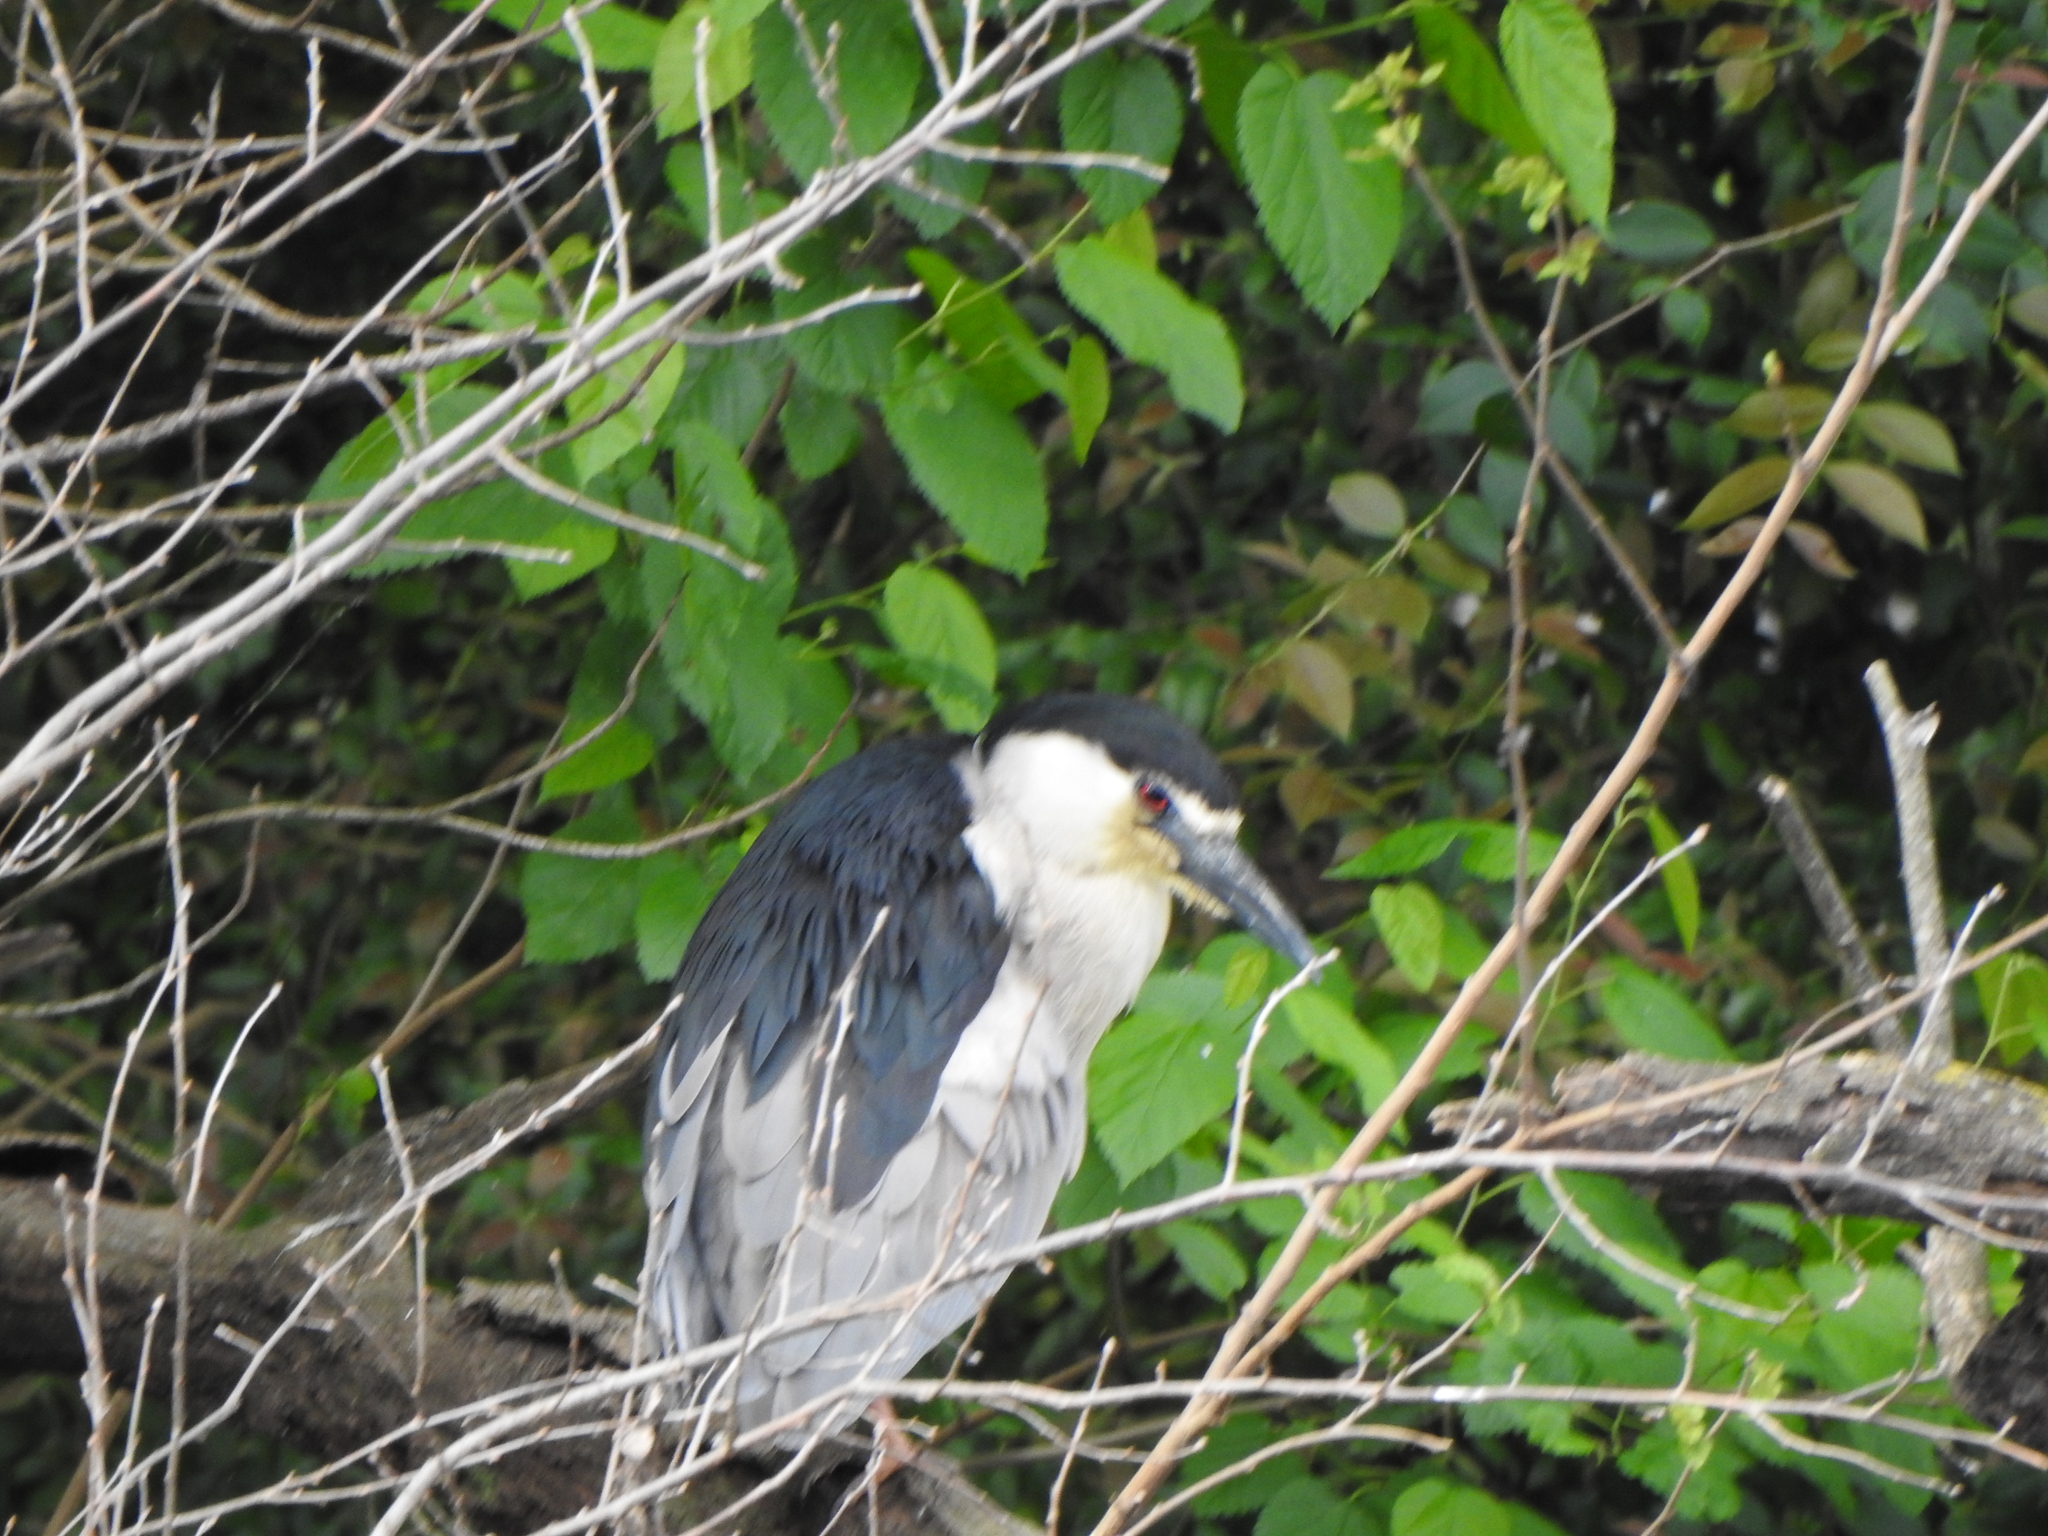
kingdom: Animalia
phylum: Chordata
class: Aves
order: Pelecaniformes
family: Ardeidae
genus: Nycticorax
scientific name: Nycticorax nycticorax
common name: Black-crowned night heron
